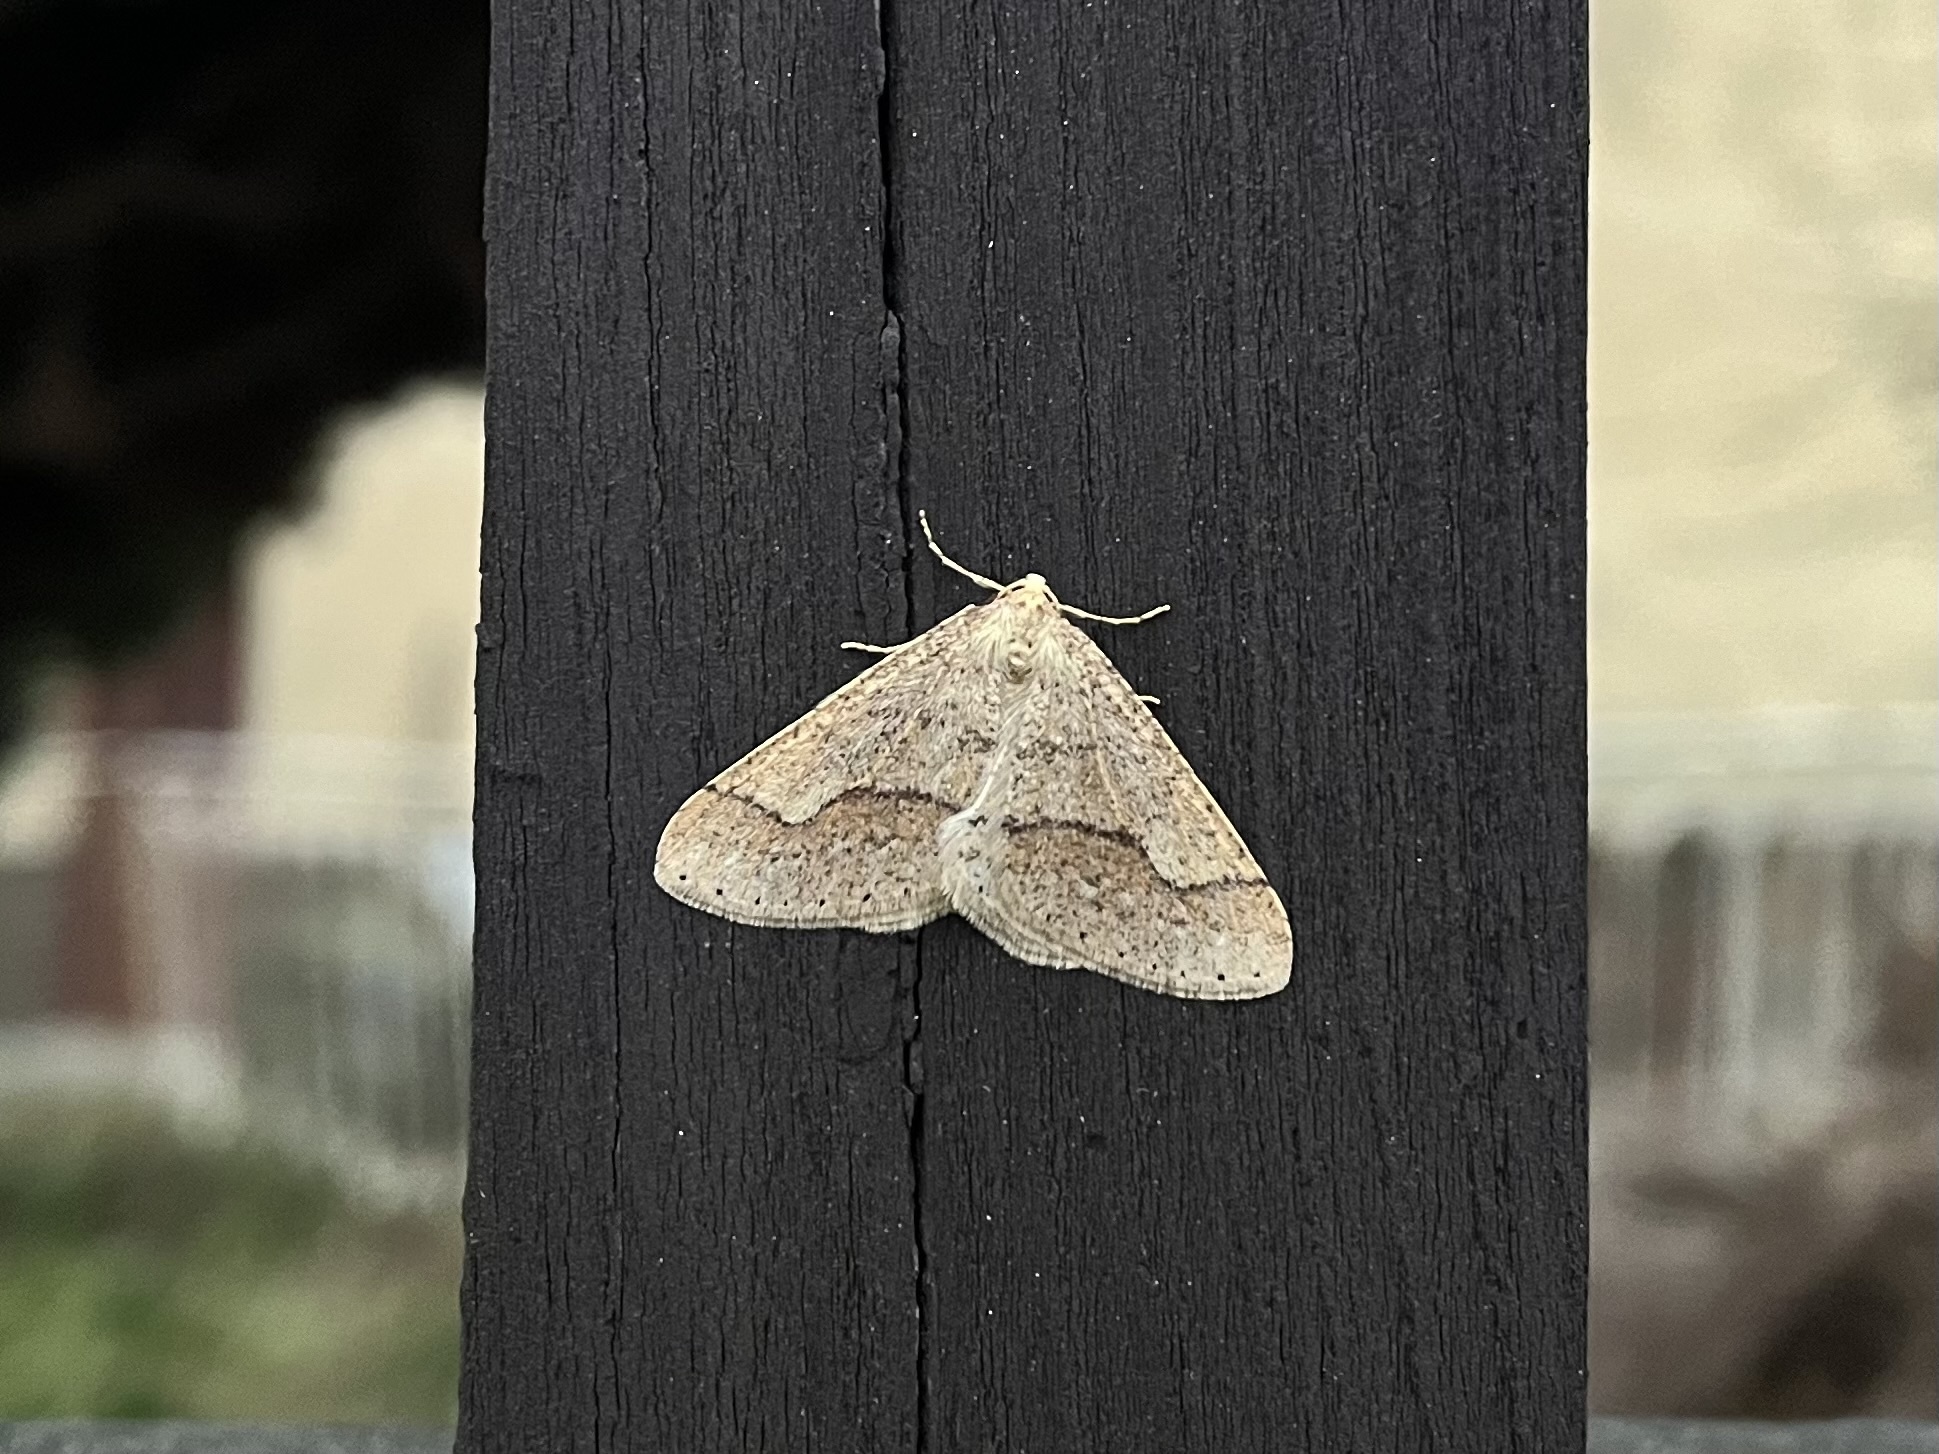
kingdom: Animalia
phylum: Arthropoda
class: Insecta
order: Lepidoptera
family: Geometridae
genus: Agriopis
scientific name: Agriopis marginaria
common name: Dotted border
